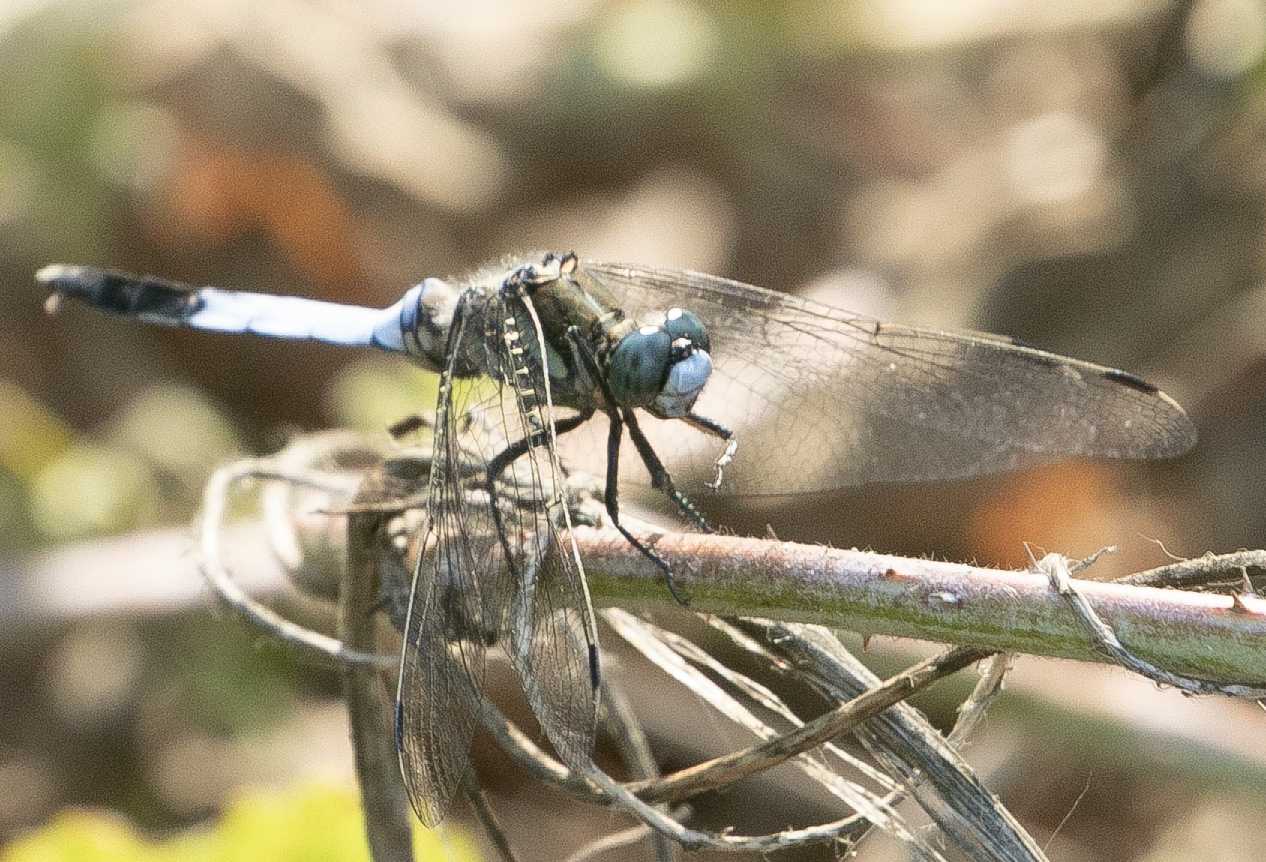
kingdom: Animalia
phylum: Arthropoda
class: Insecta
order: Odonata
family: Libellulidae
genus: Orthetrum
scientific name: Orthetrum albistylum
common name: White-tailed skimmer
